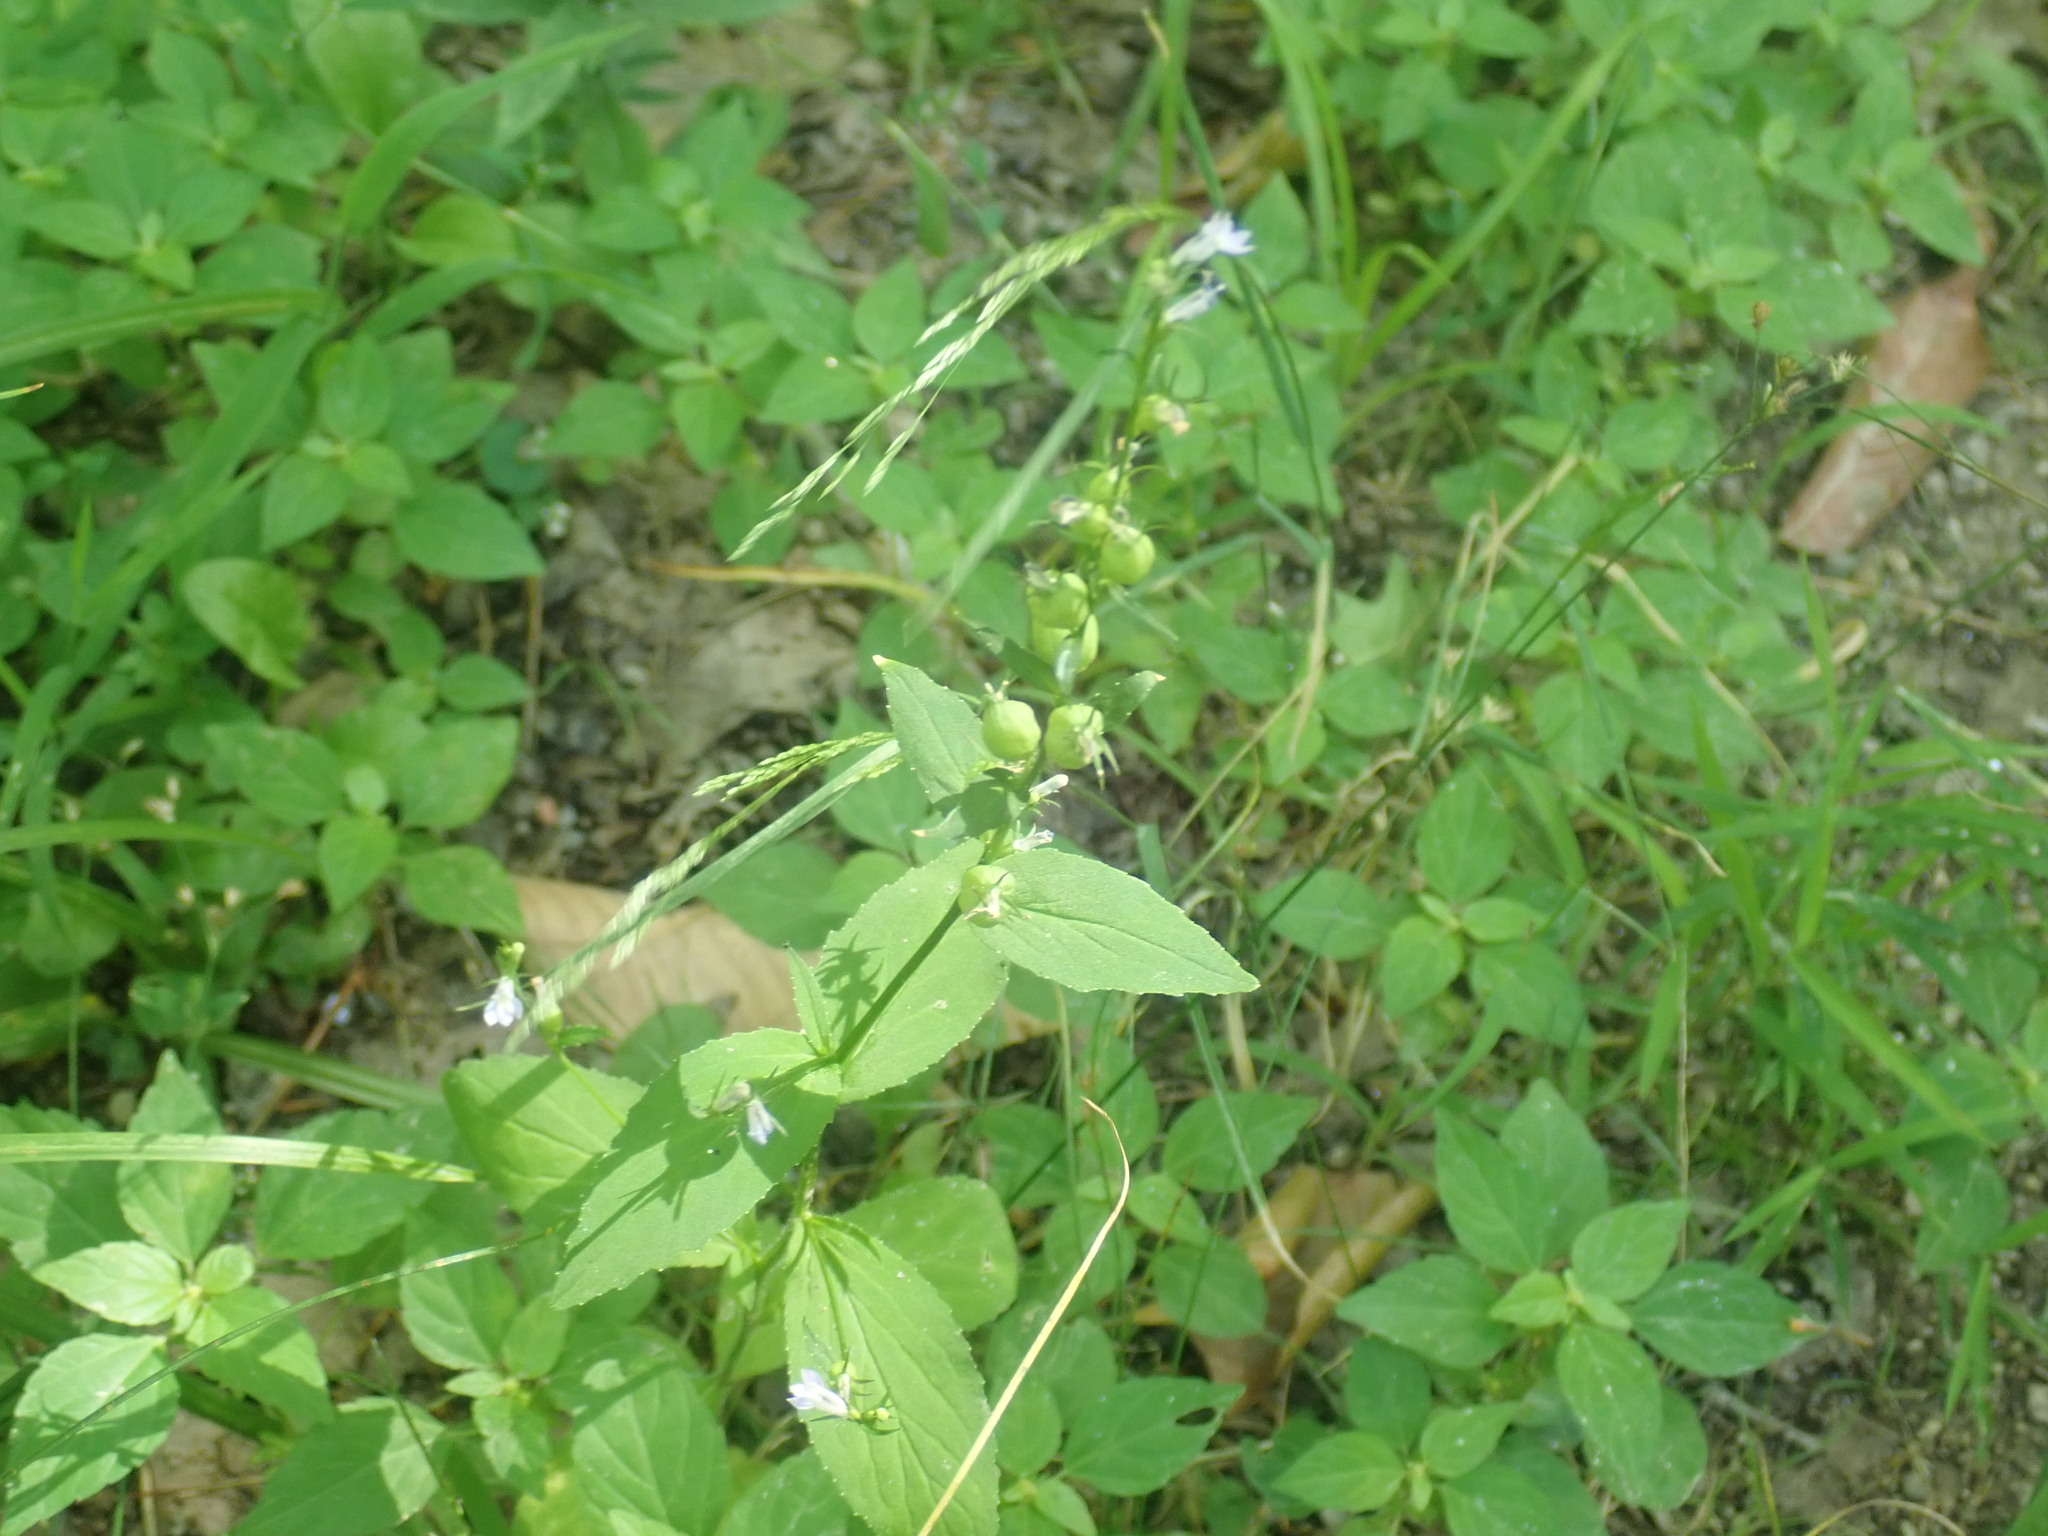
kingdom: Plantae
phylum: Tracheophyta
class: Magnoliopsida
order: Asterales
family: Campanulaceae
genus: Lobelia
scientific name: Lobelia inflata
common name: Indian tobacco
